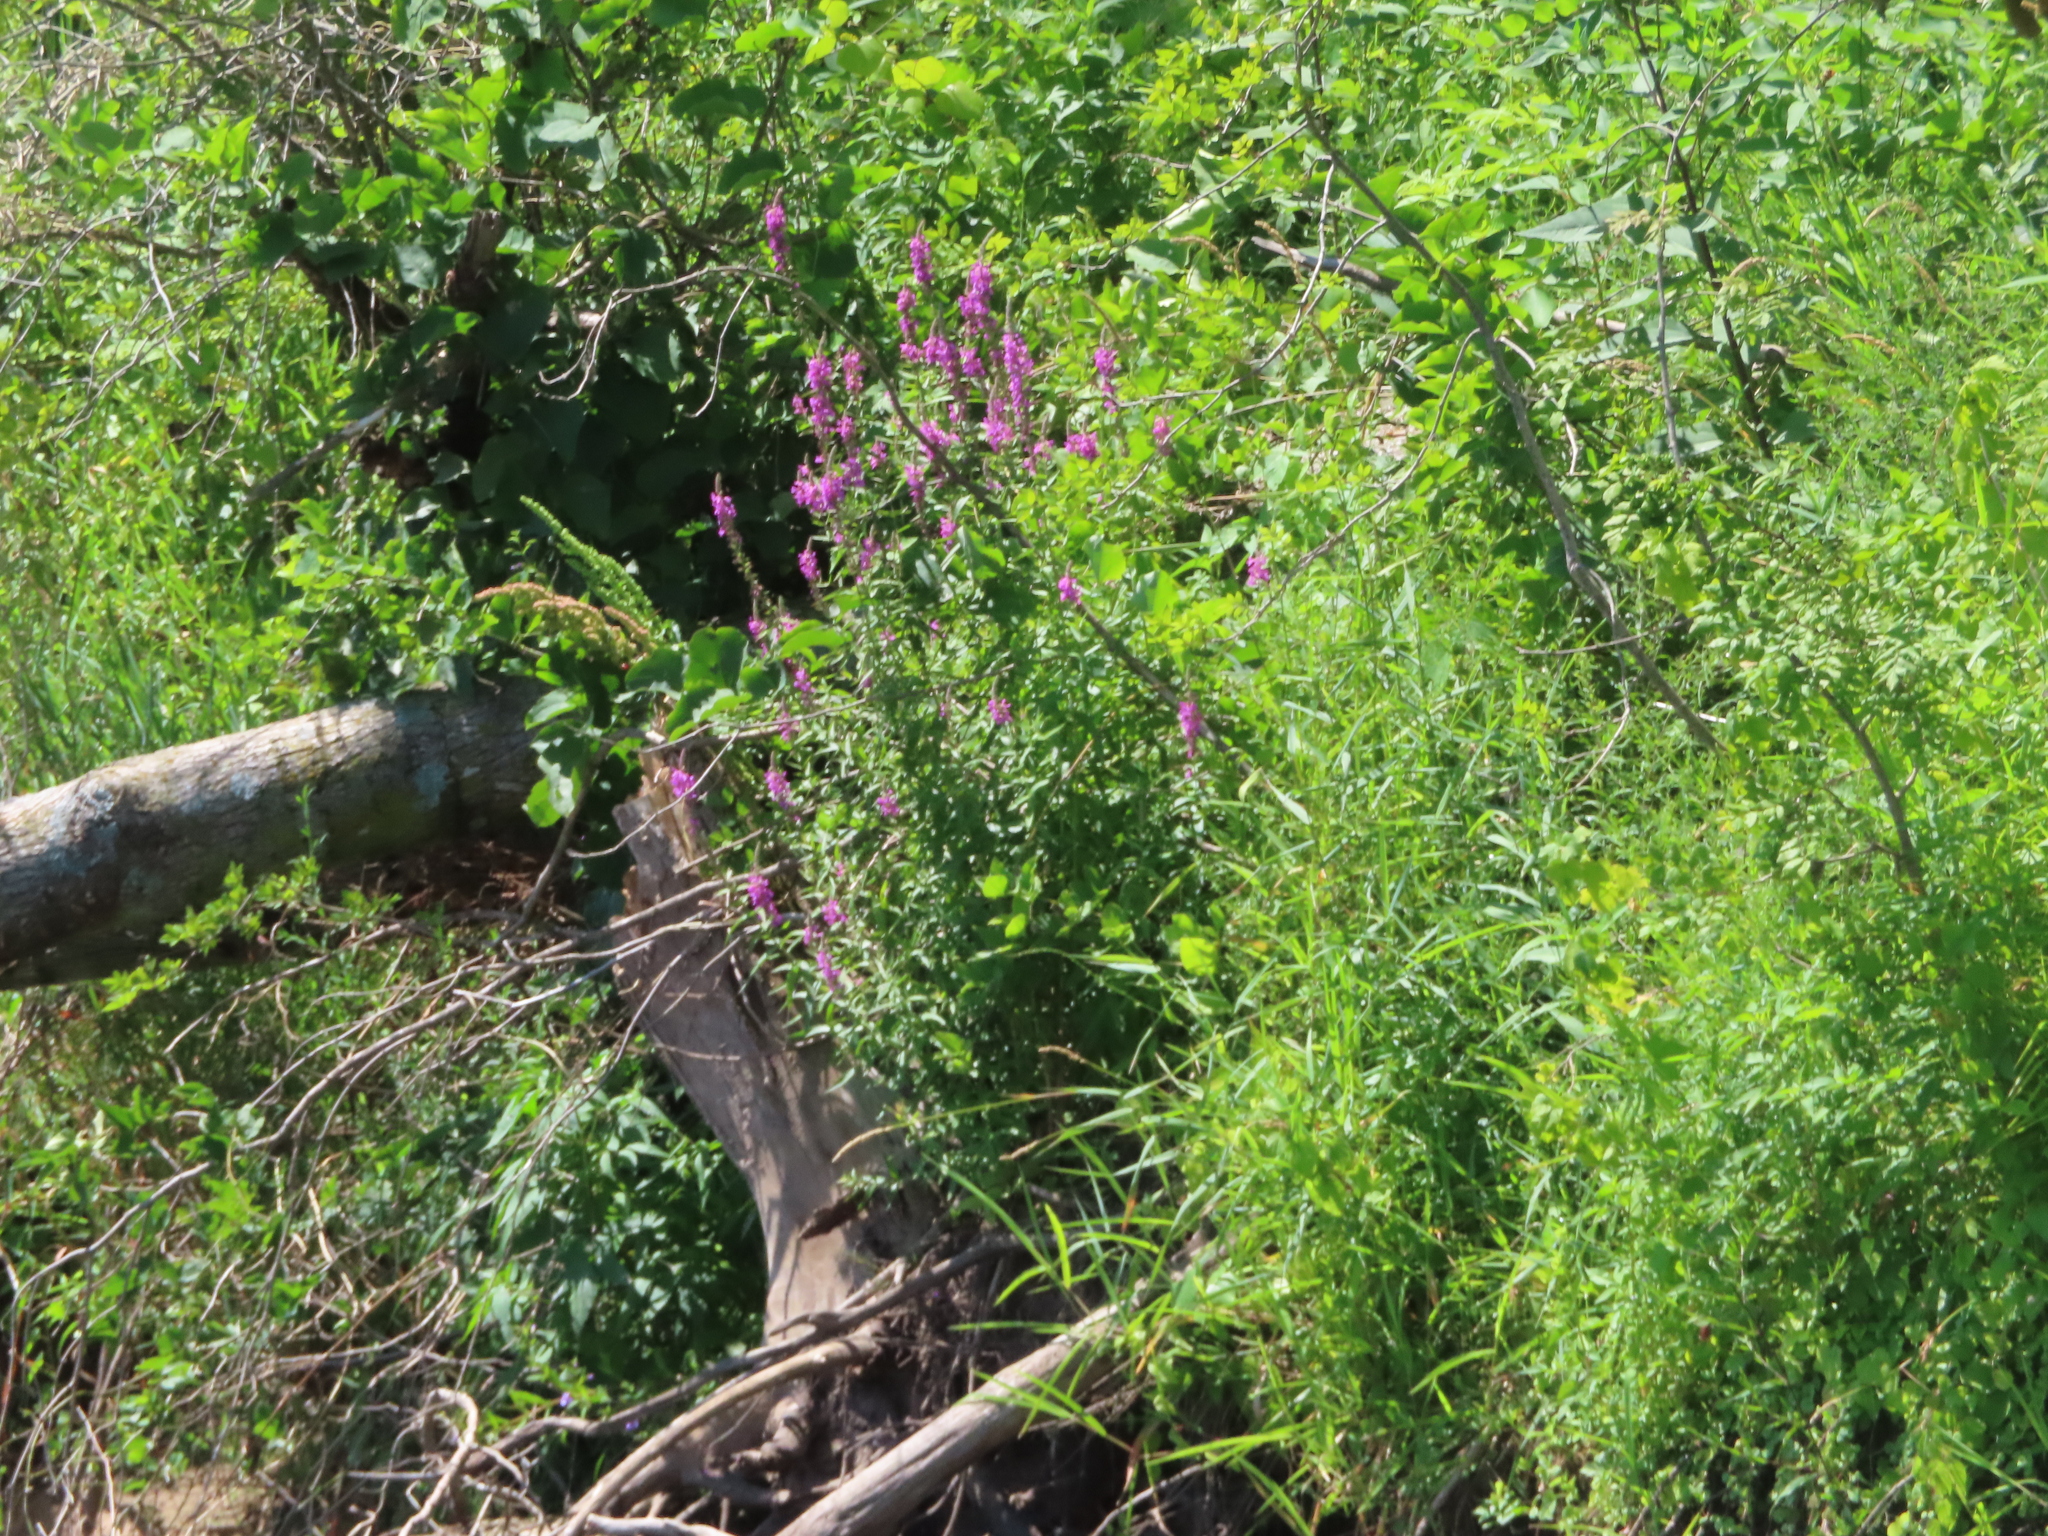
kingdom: Plantae
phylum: Tracheophyta
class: Magnoliopsida
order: Myrtales
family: Lythraceae
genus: Lythrum
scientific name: Lythrum salicaria
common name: Purple loosestrife
